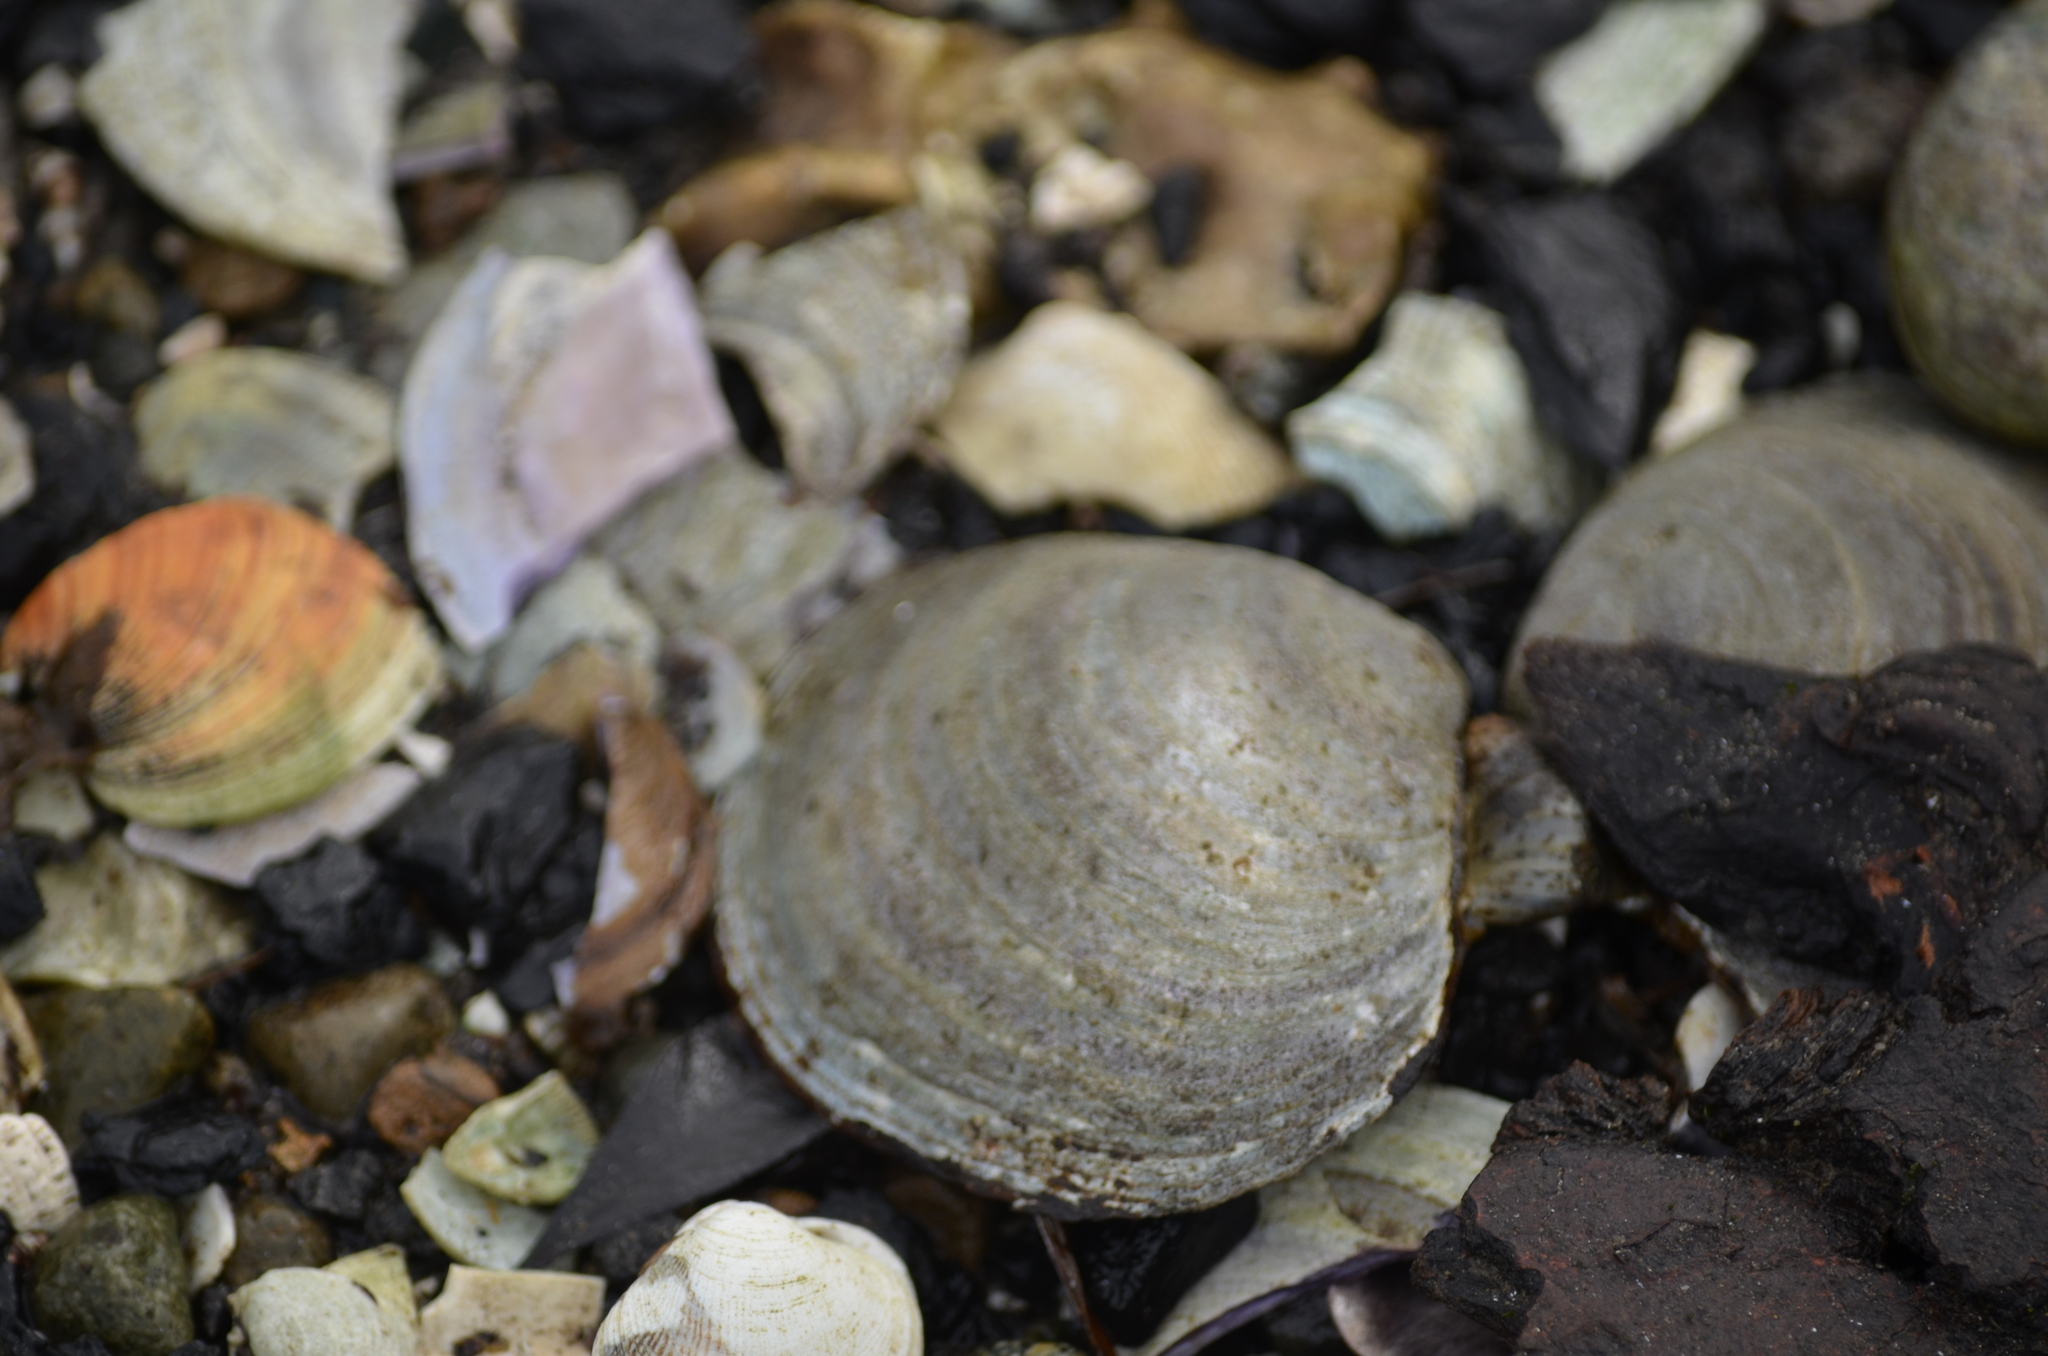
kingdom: Animalia
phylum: Mollusca
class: Bivalvia
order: Cardiida
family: Psammobiidae
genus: Nuttallia
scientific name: Nuttallia obscurata
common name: Purple mahogany-clam
